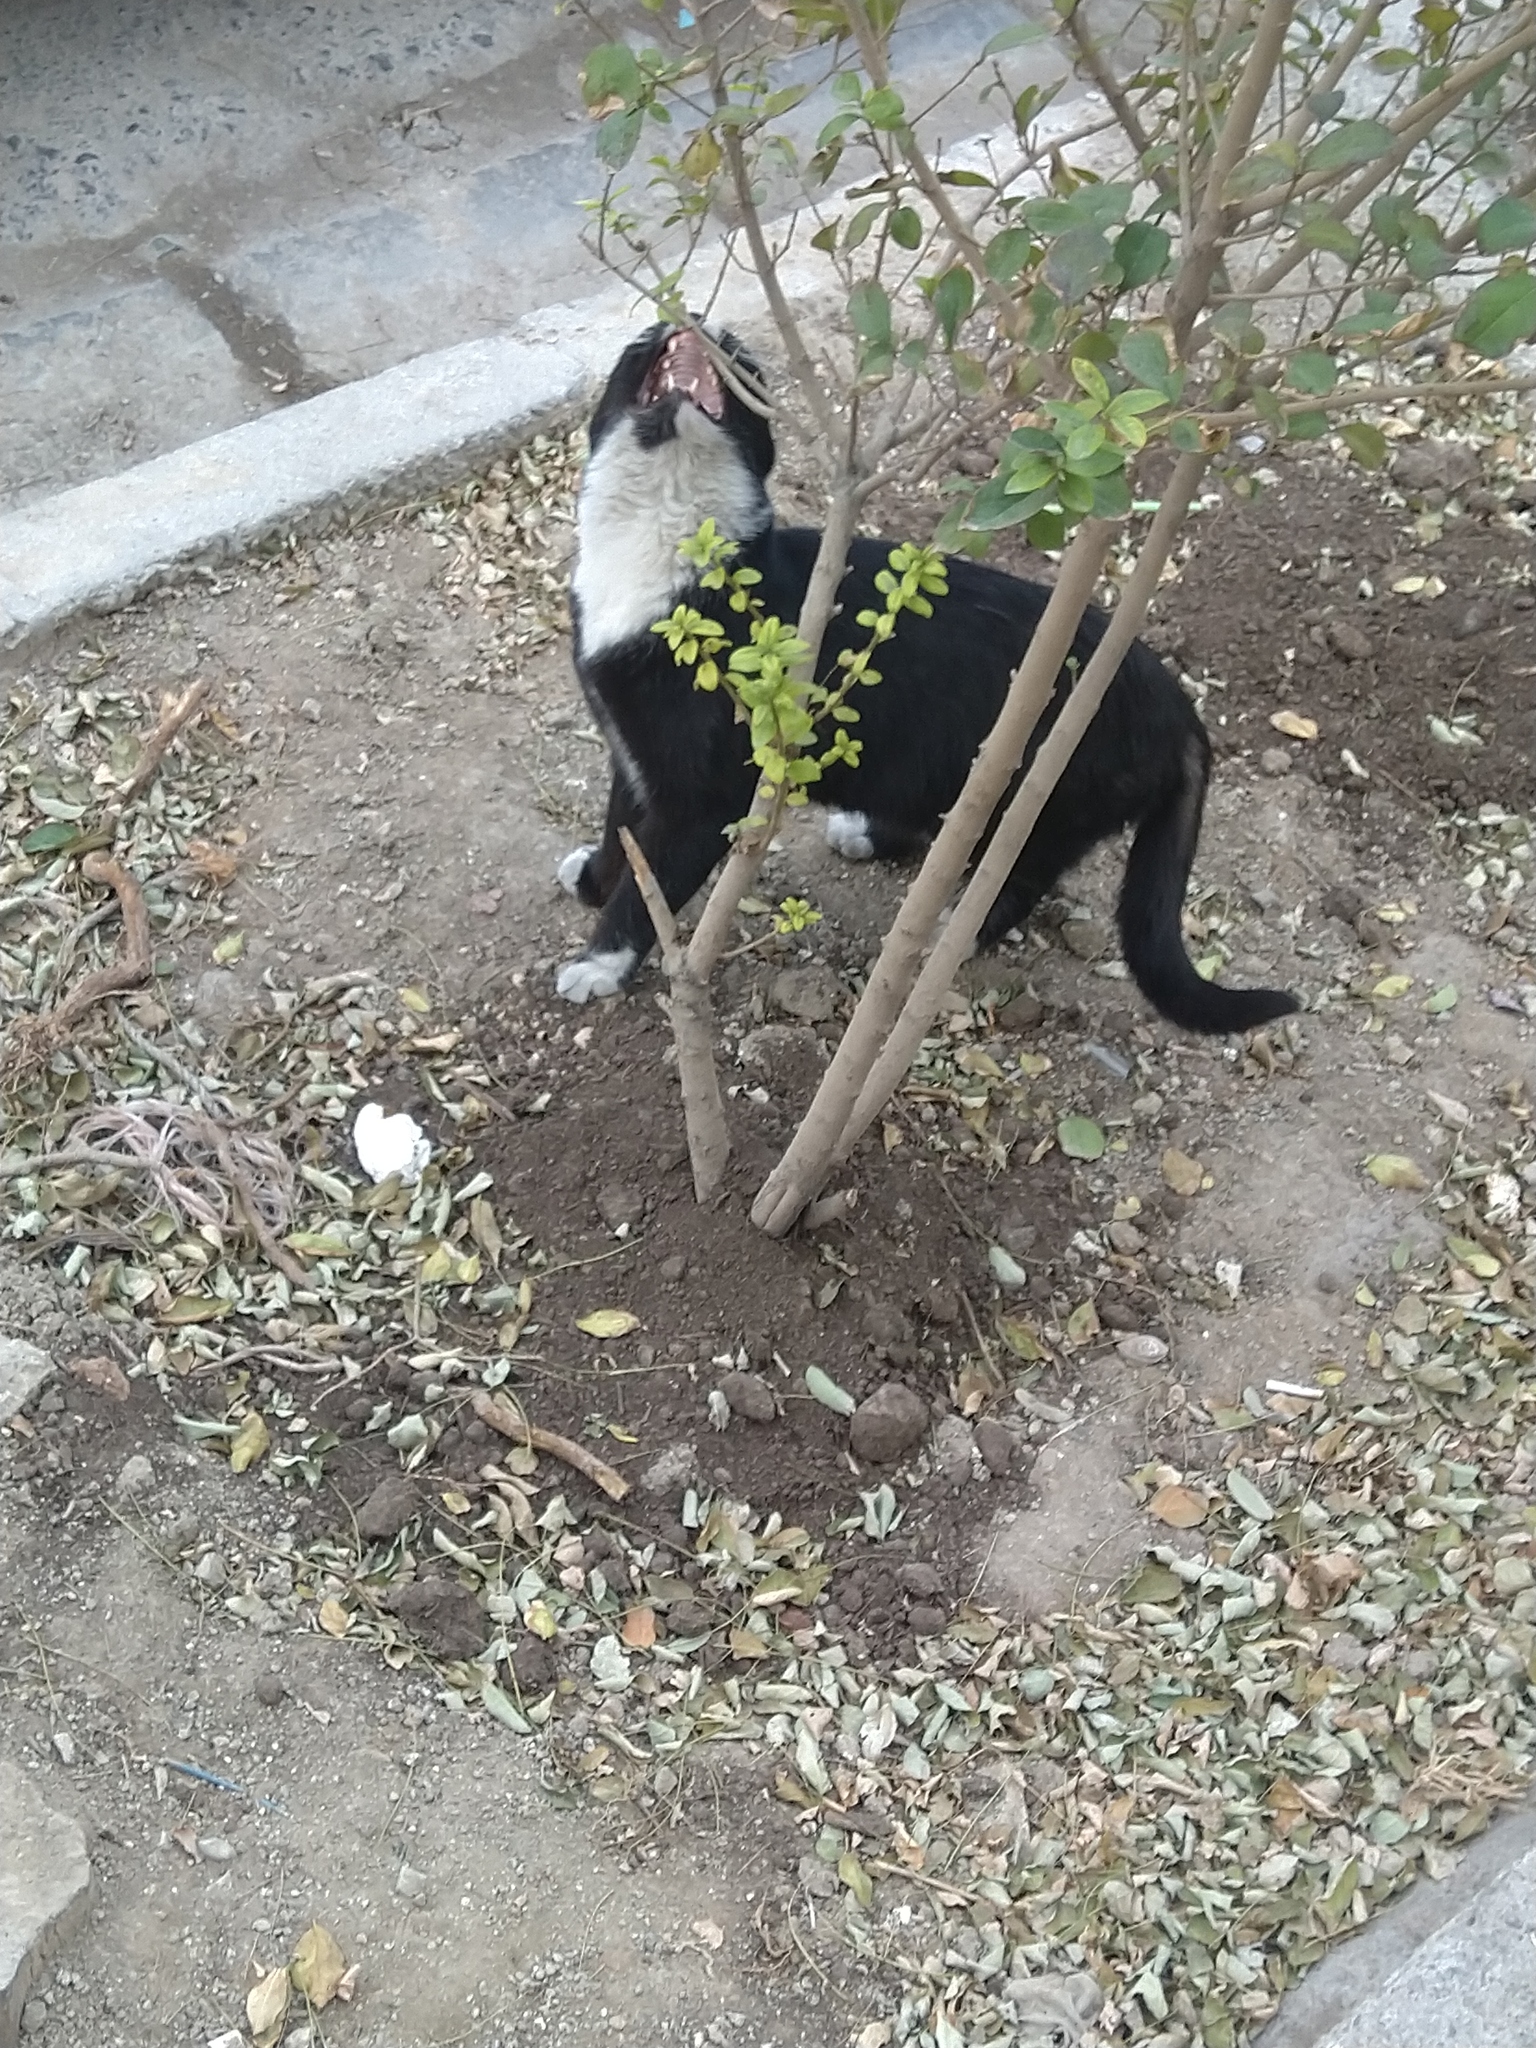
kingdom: Animalia
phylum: Chordata
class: Mammalia
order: Carnivora
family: Felidae
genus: Felis
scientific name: Felis catus
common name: Domestic cat
